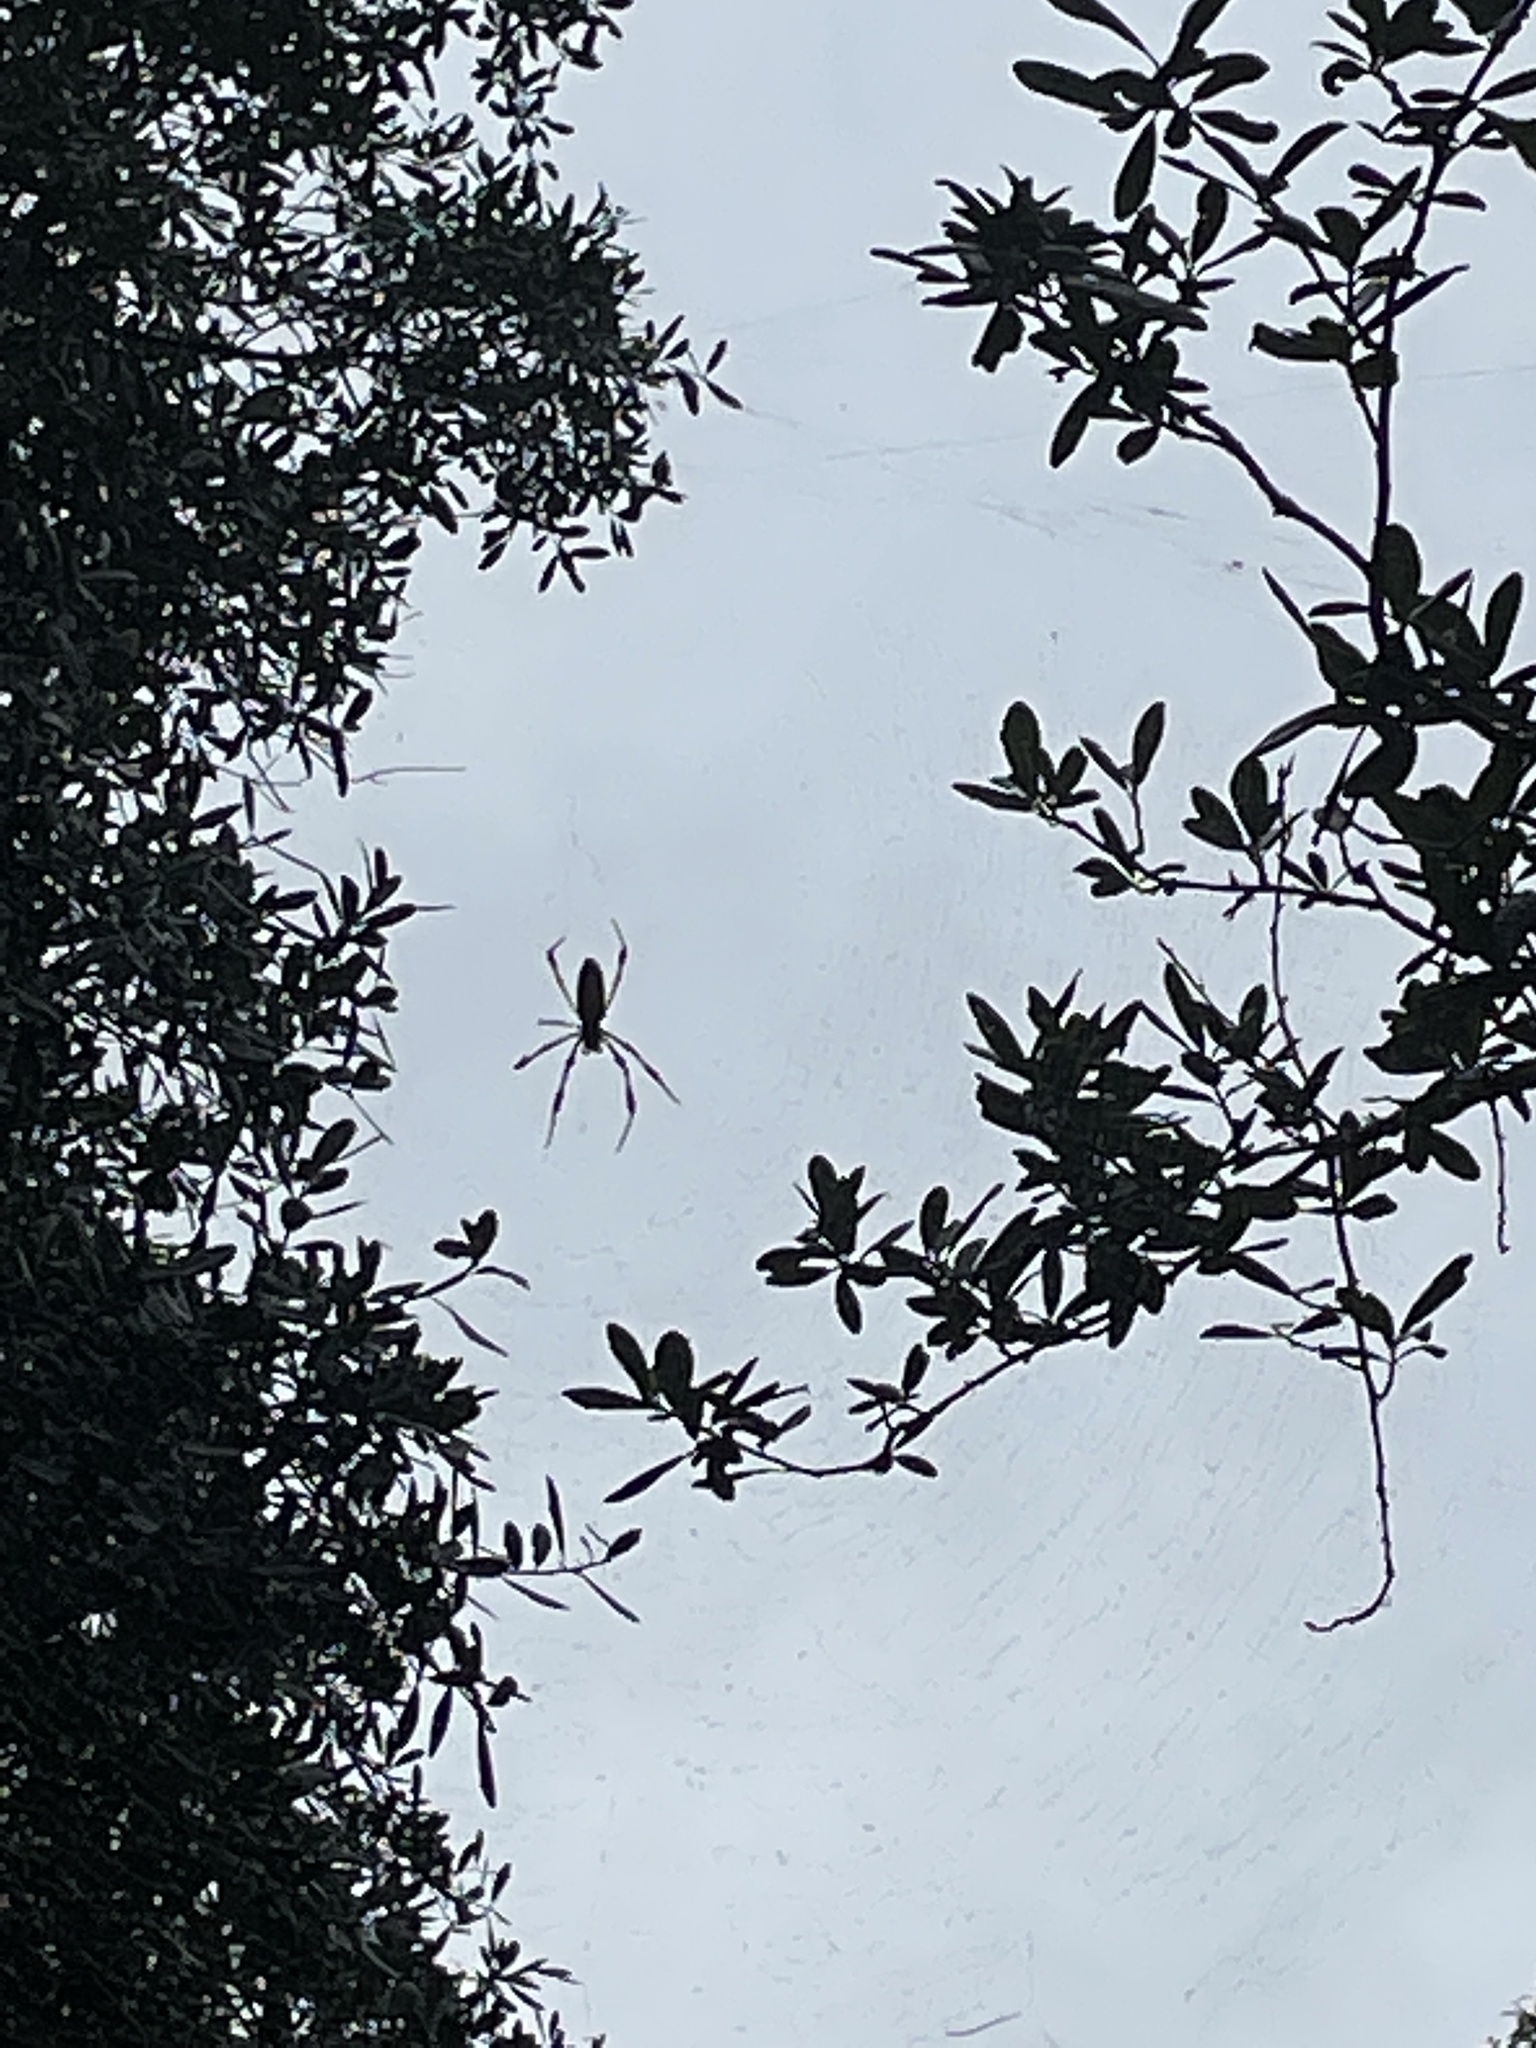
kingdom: Animalia
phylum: Arthropoda
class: Arachnida
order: Araneae
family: Araneidae
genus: Trichonephila
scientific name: Trichonephila clavipes
